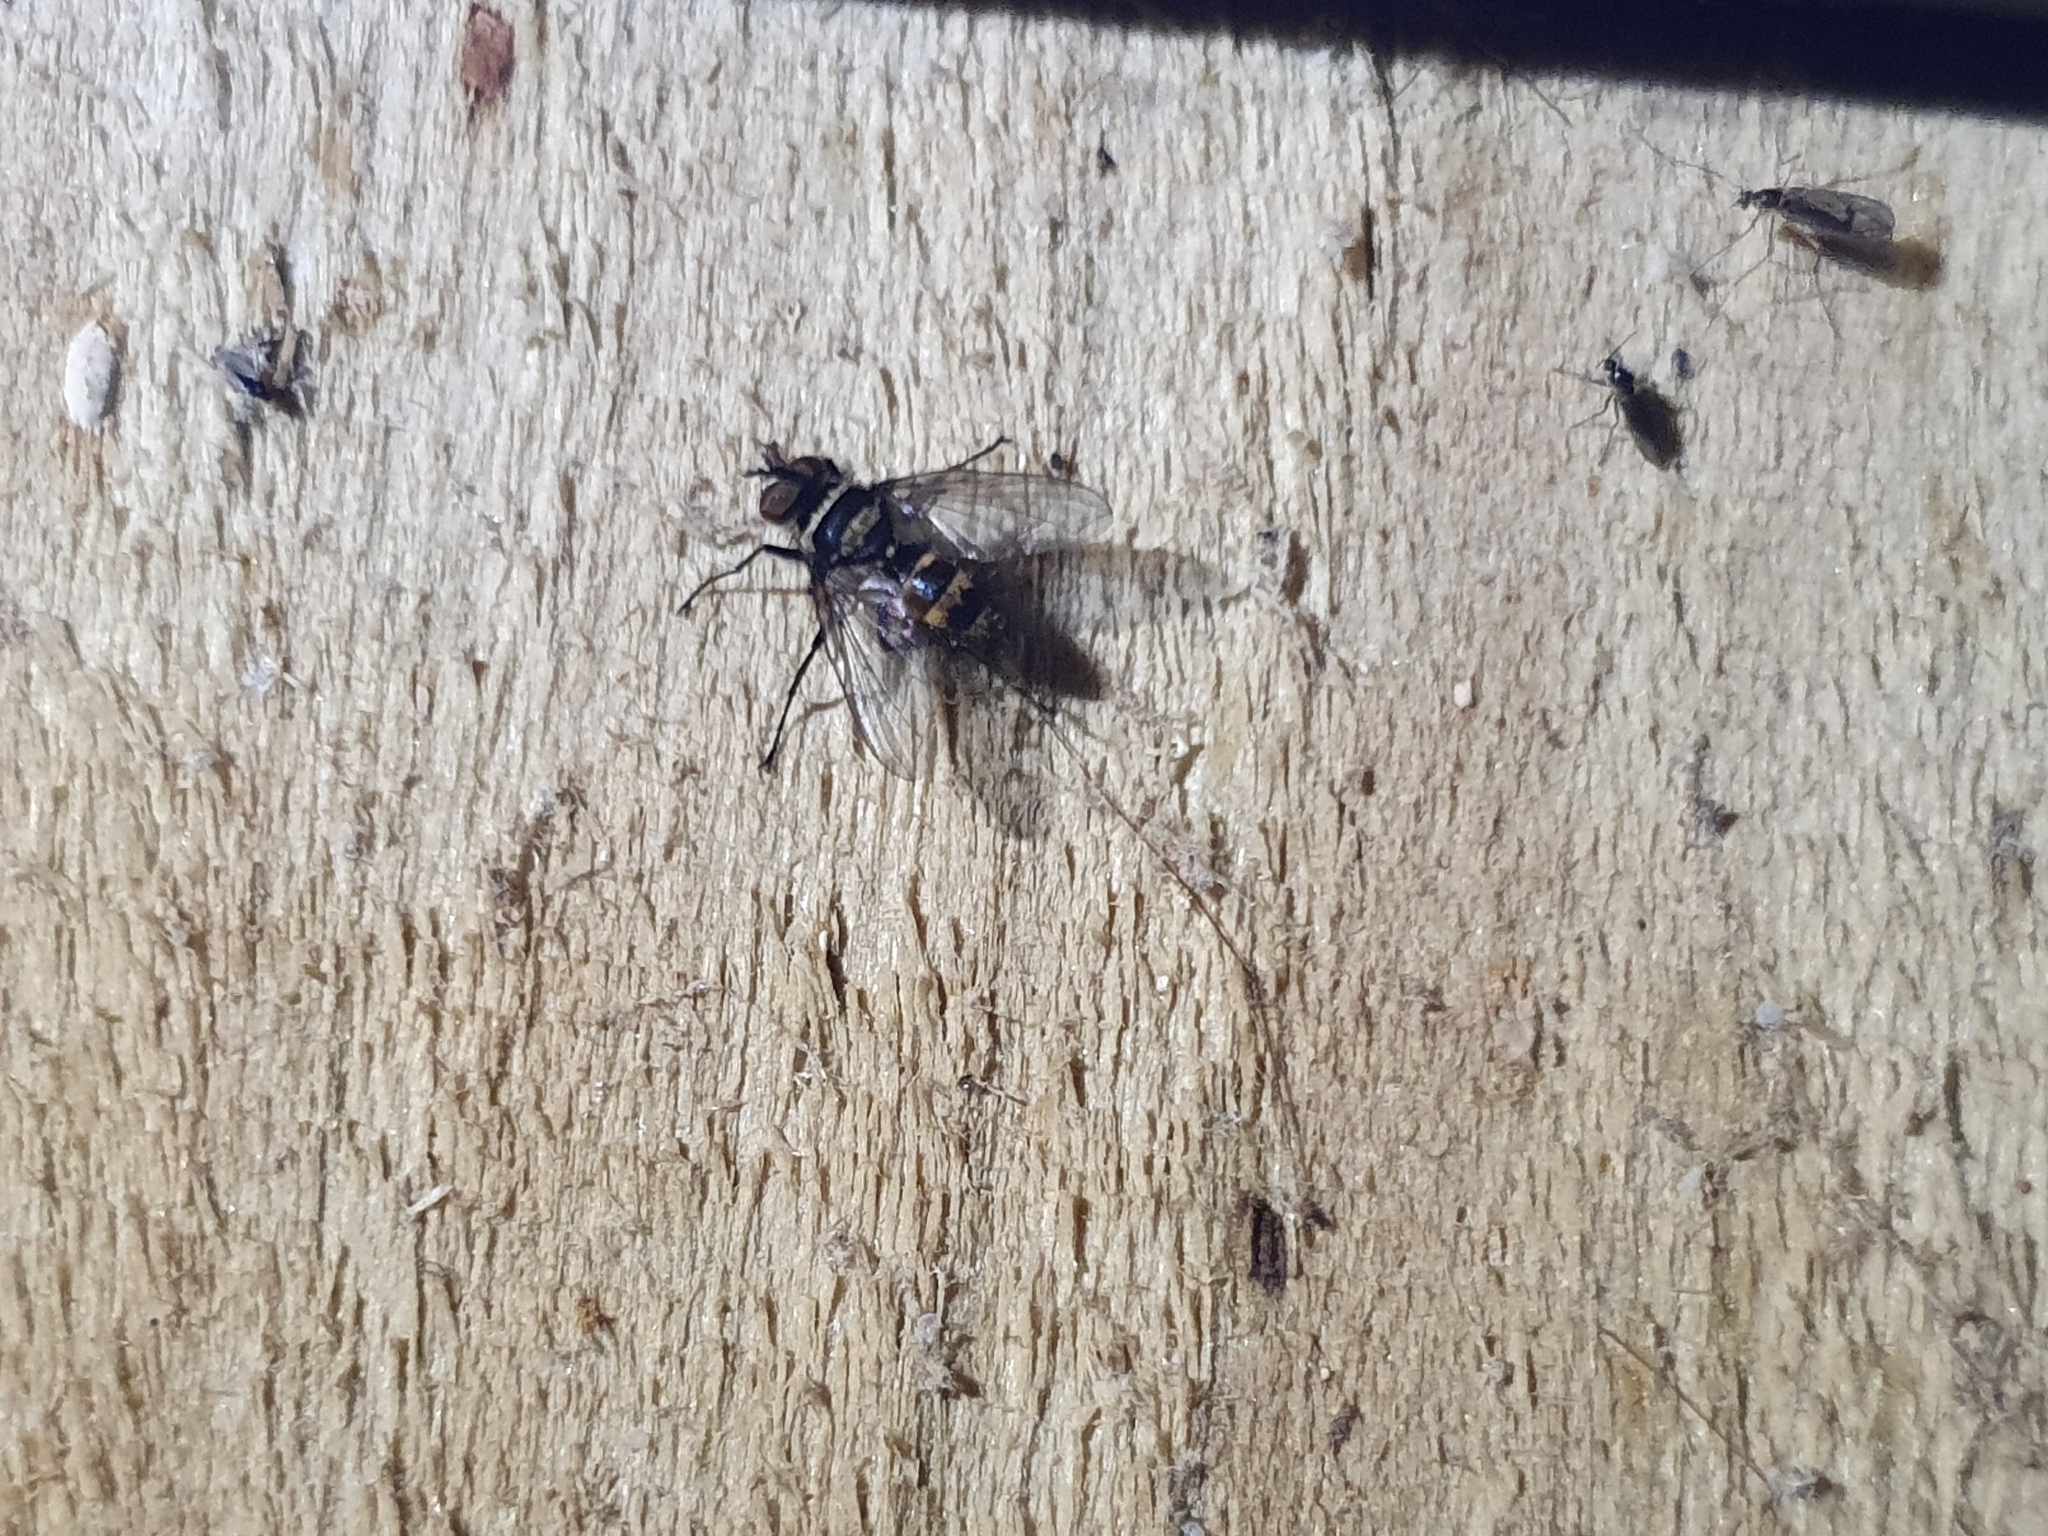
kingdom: Animalia
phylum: Arthropoda
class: Insecta
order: Diptera
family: Tachinidae
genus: Trigonospila
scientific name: Trigonospila brevifacies
